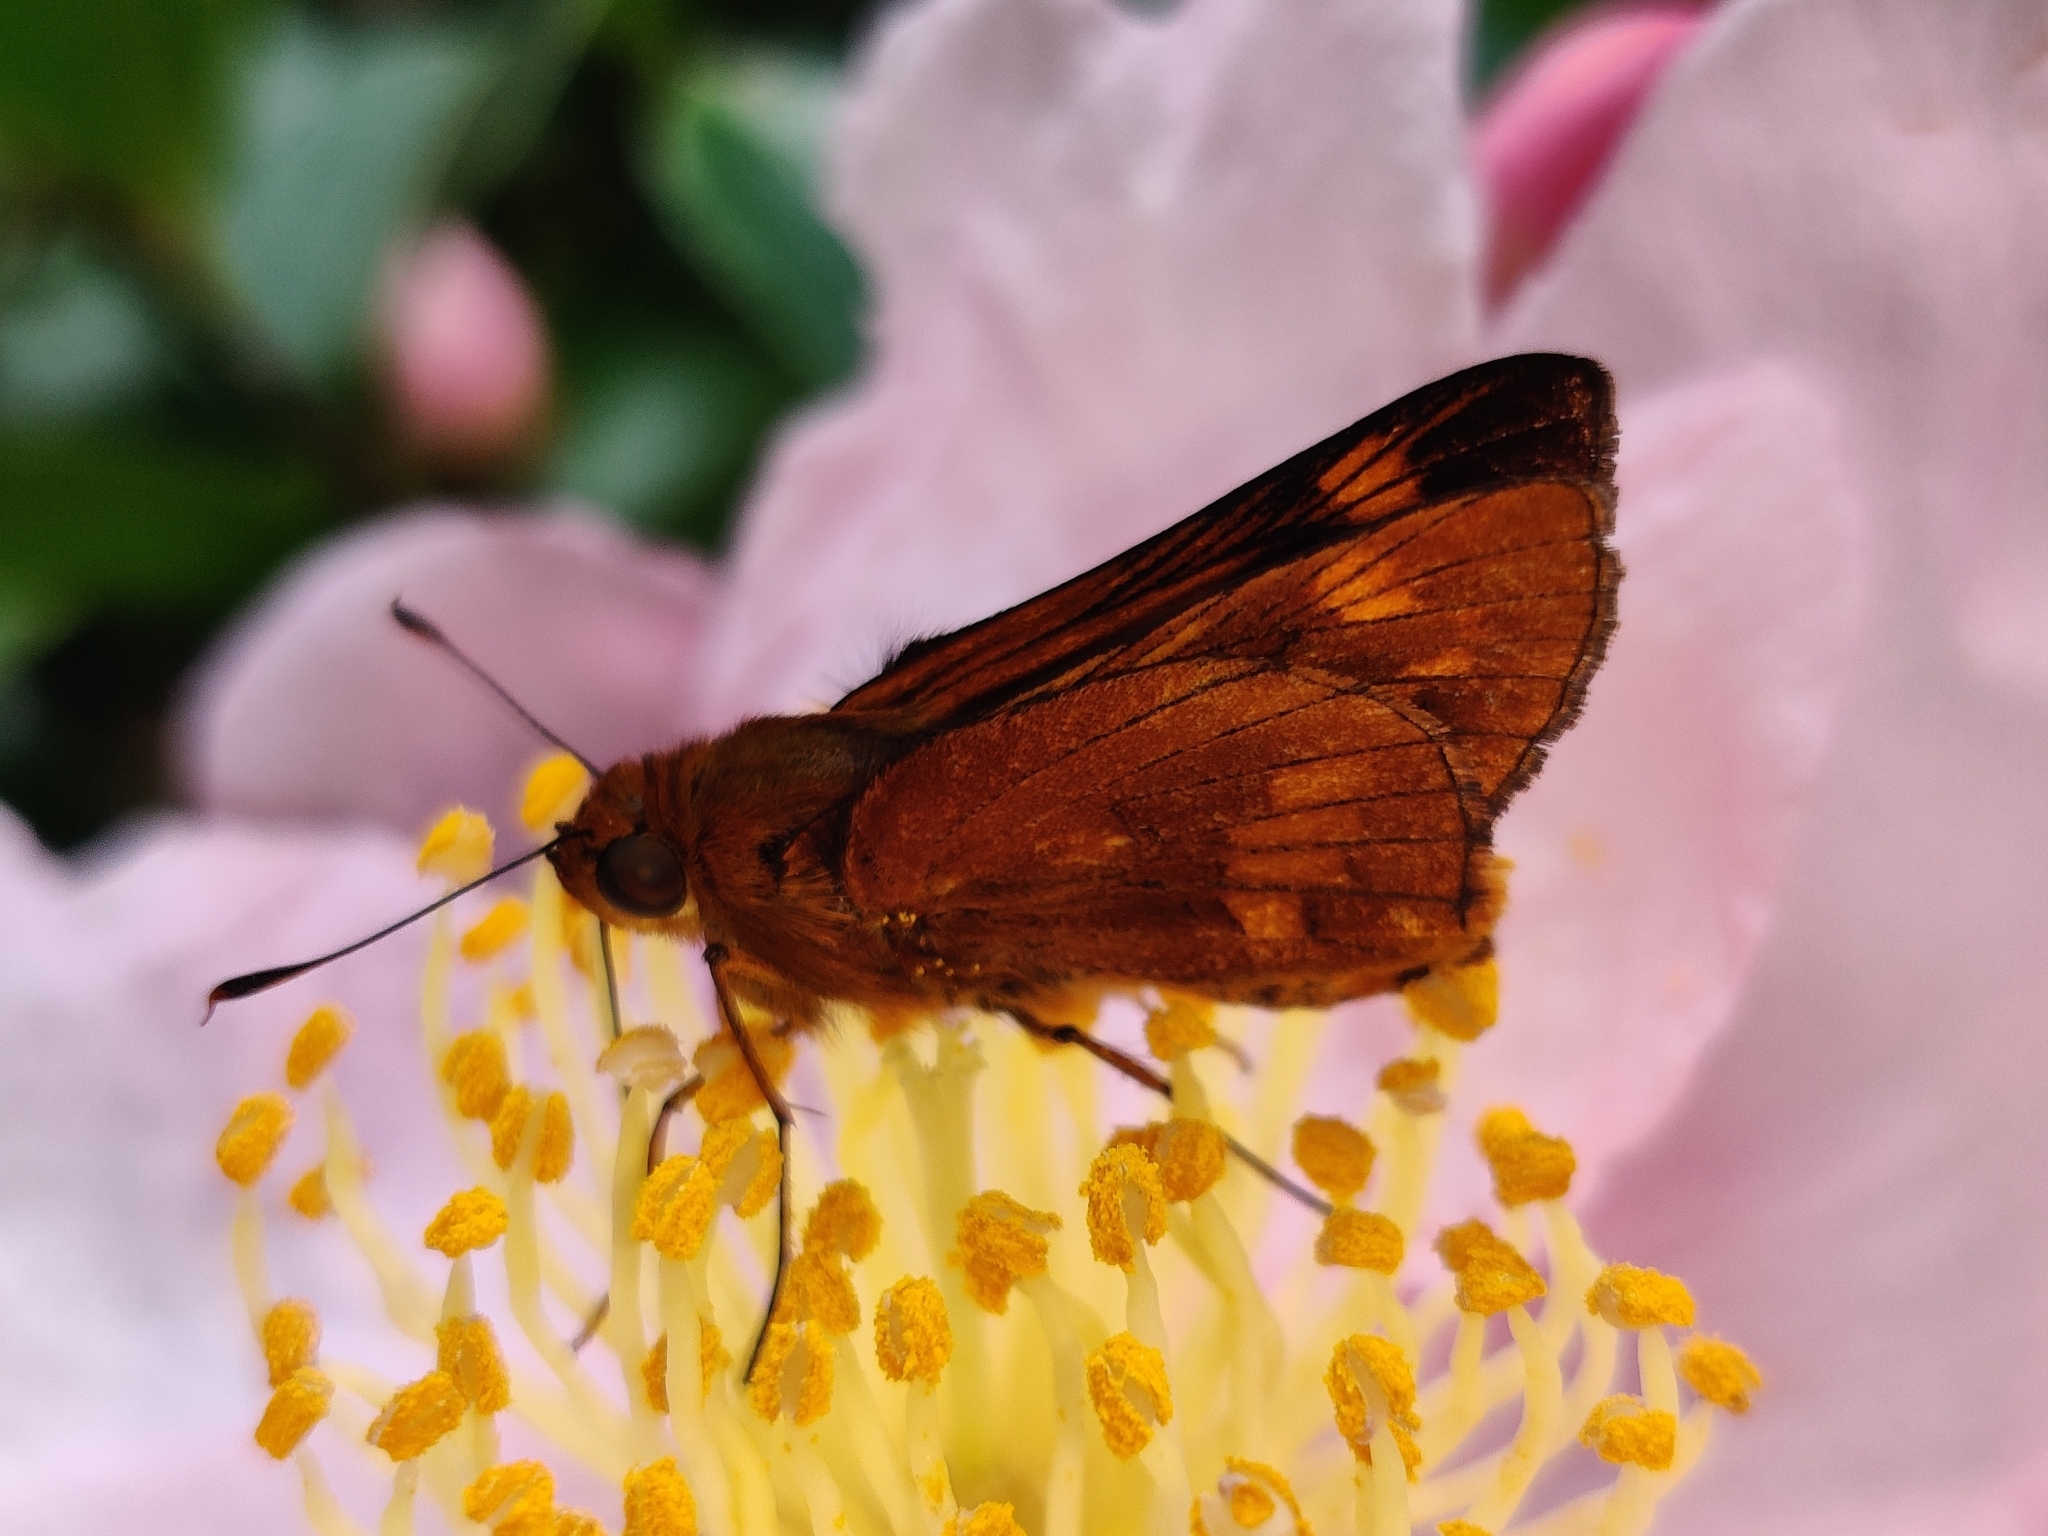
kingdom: Animalia
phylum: Arthropoda
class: Insecta
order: Lepidoptera
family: Hesperiidae
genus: Cephrenes
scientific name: Cephrenes augiades
